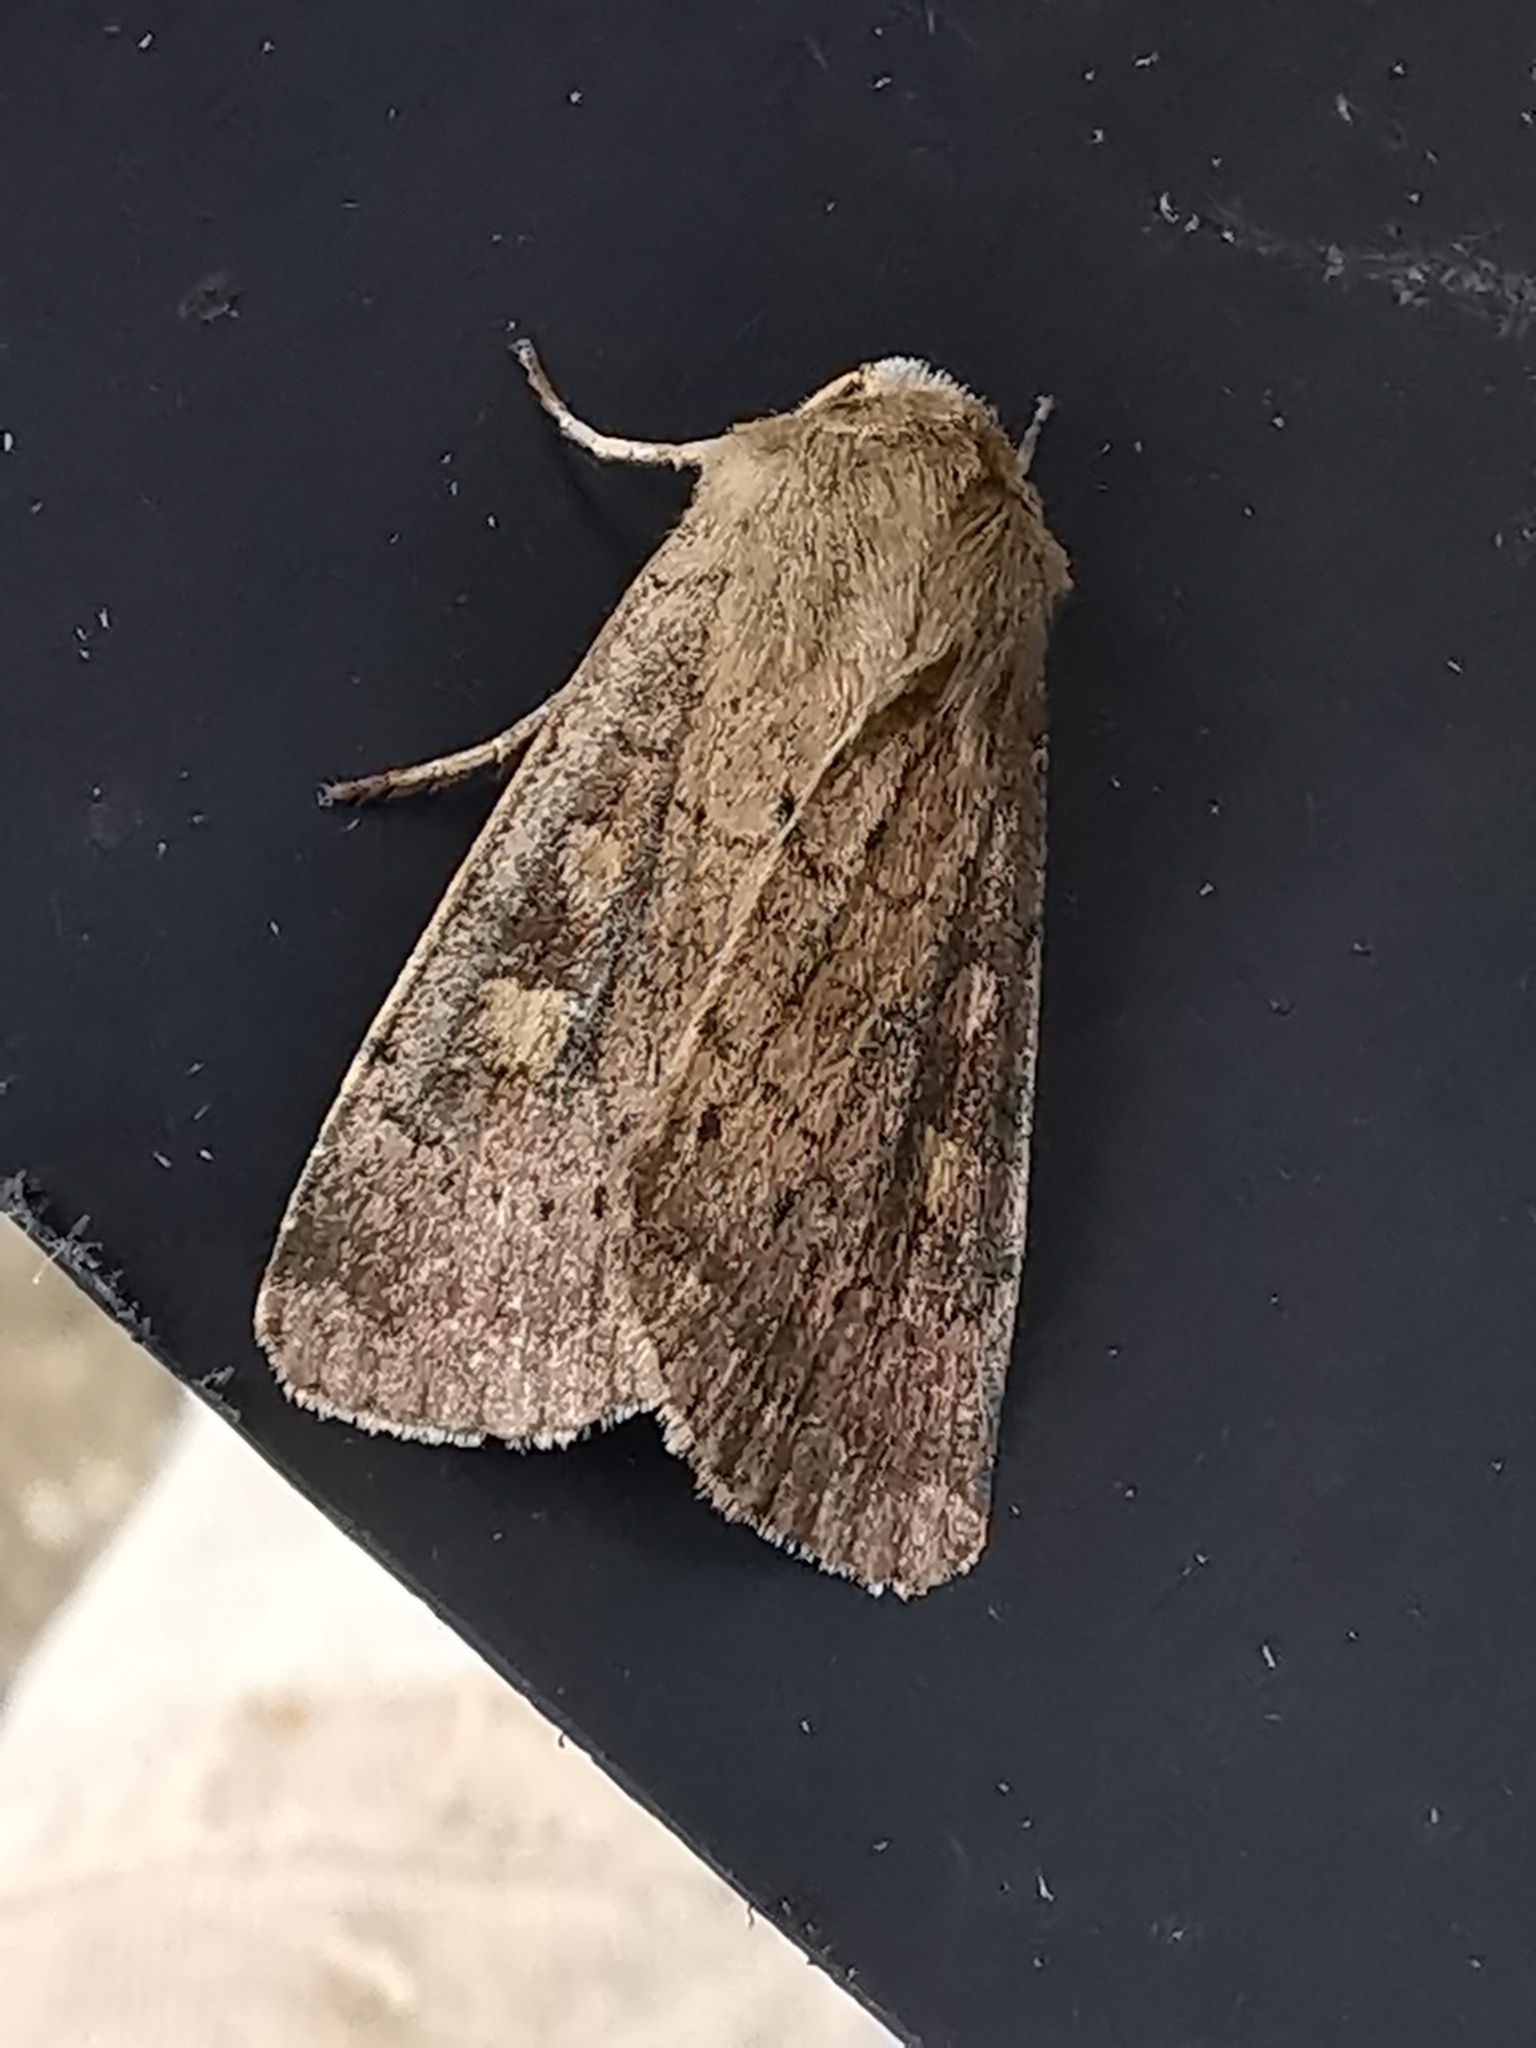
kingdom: Animalia
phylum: Arthropoda
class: Insecta
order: Lepidoptera
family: Noctuidae
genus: Xestia
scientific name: Xestia xanthographa
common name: Square-spot rustic
